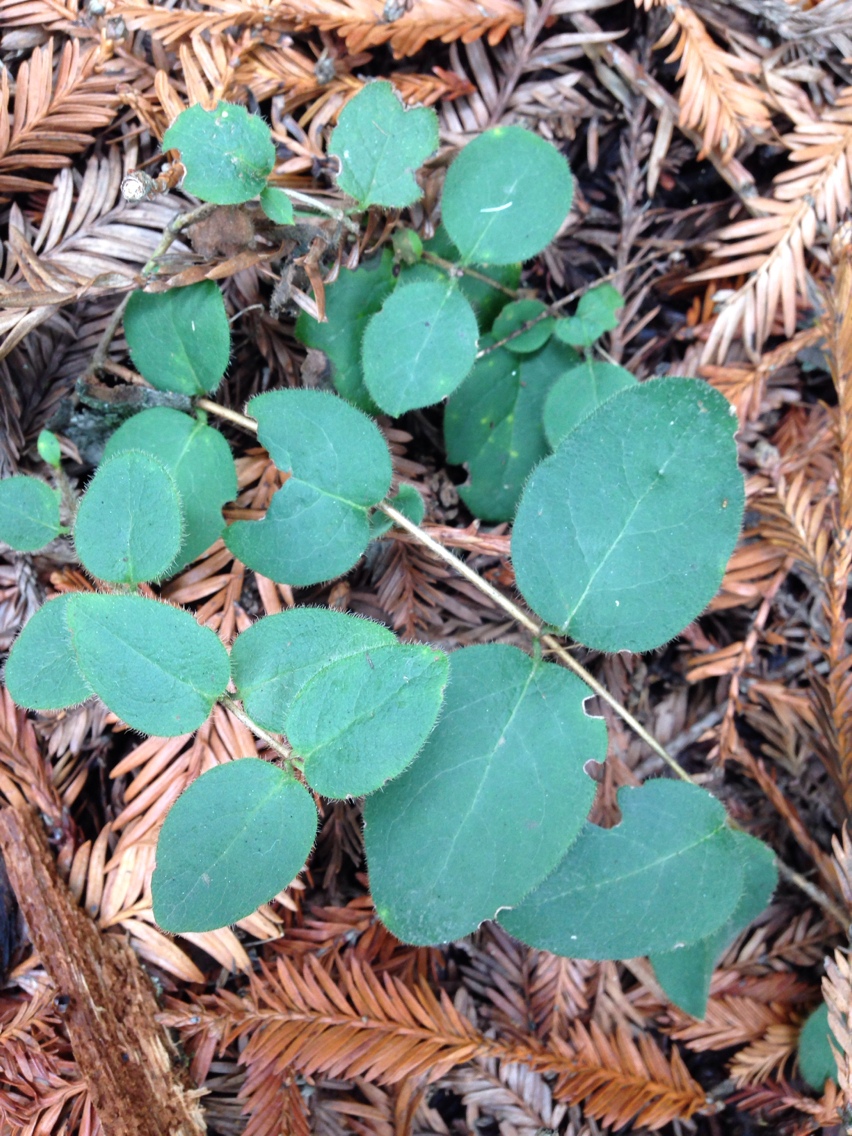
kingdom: Plantae
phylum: Tracheophyta
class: Magnoliopsida
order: Dipsacales
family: Caprifoliaceae
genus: Lonicera
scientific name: Lonicera hispidula
